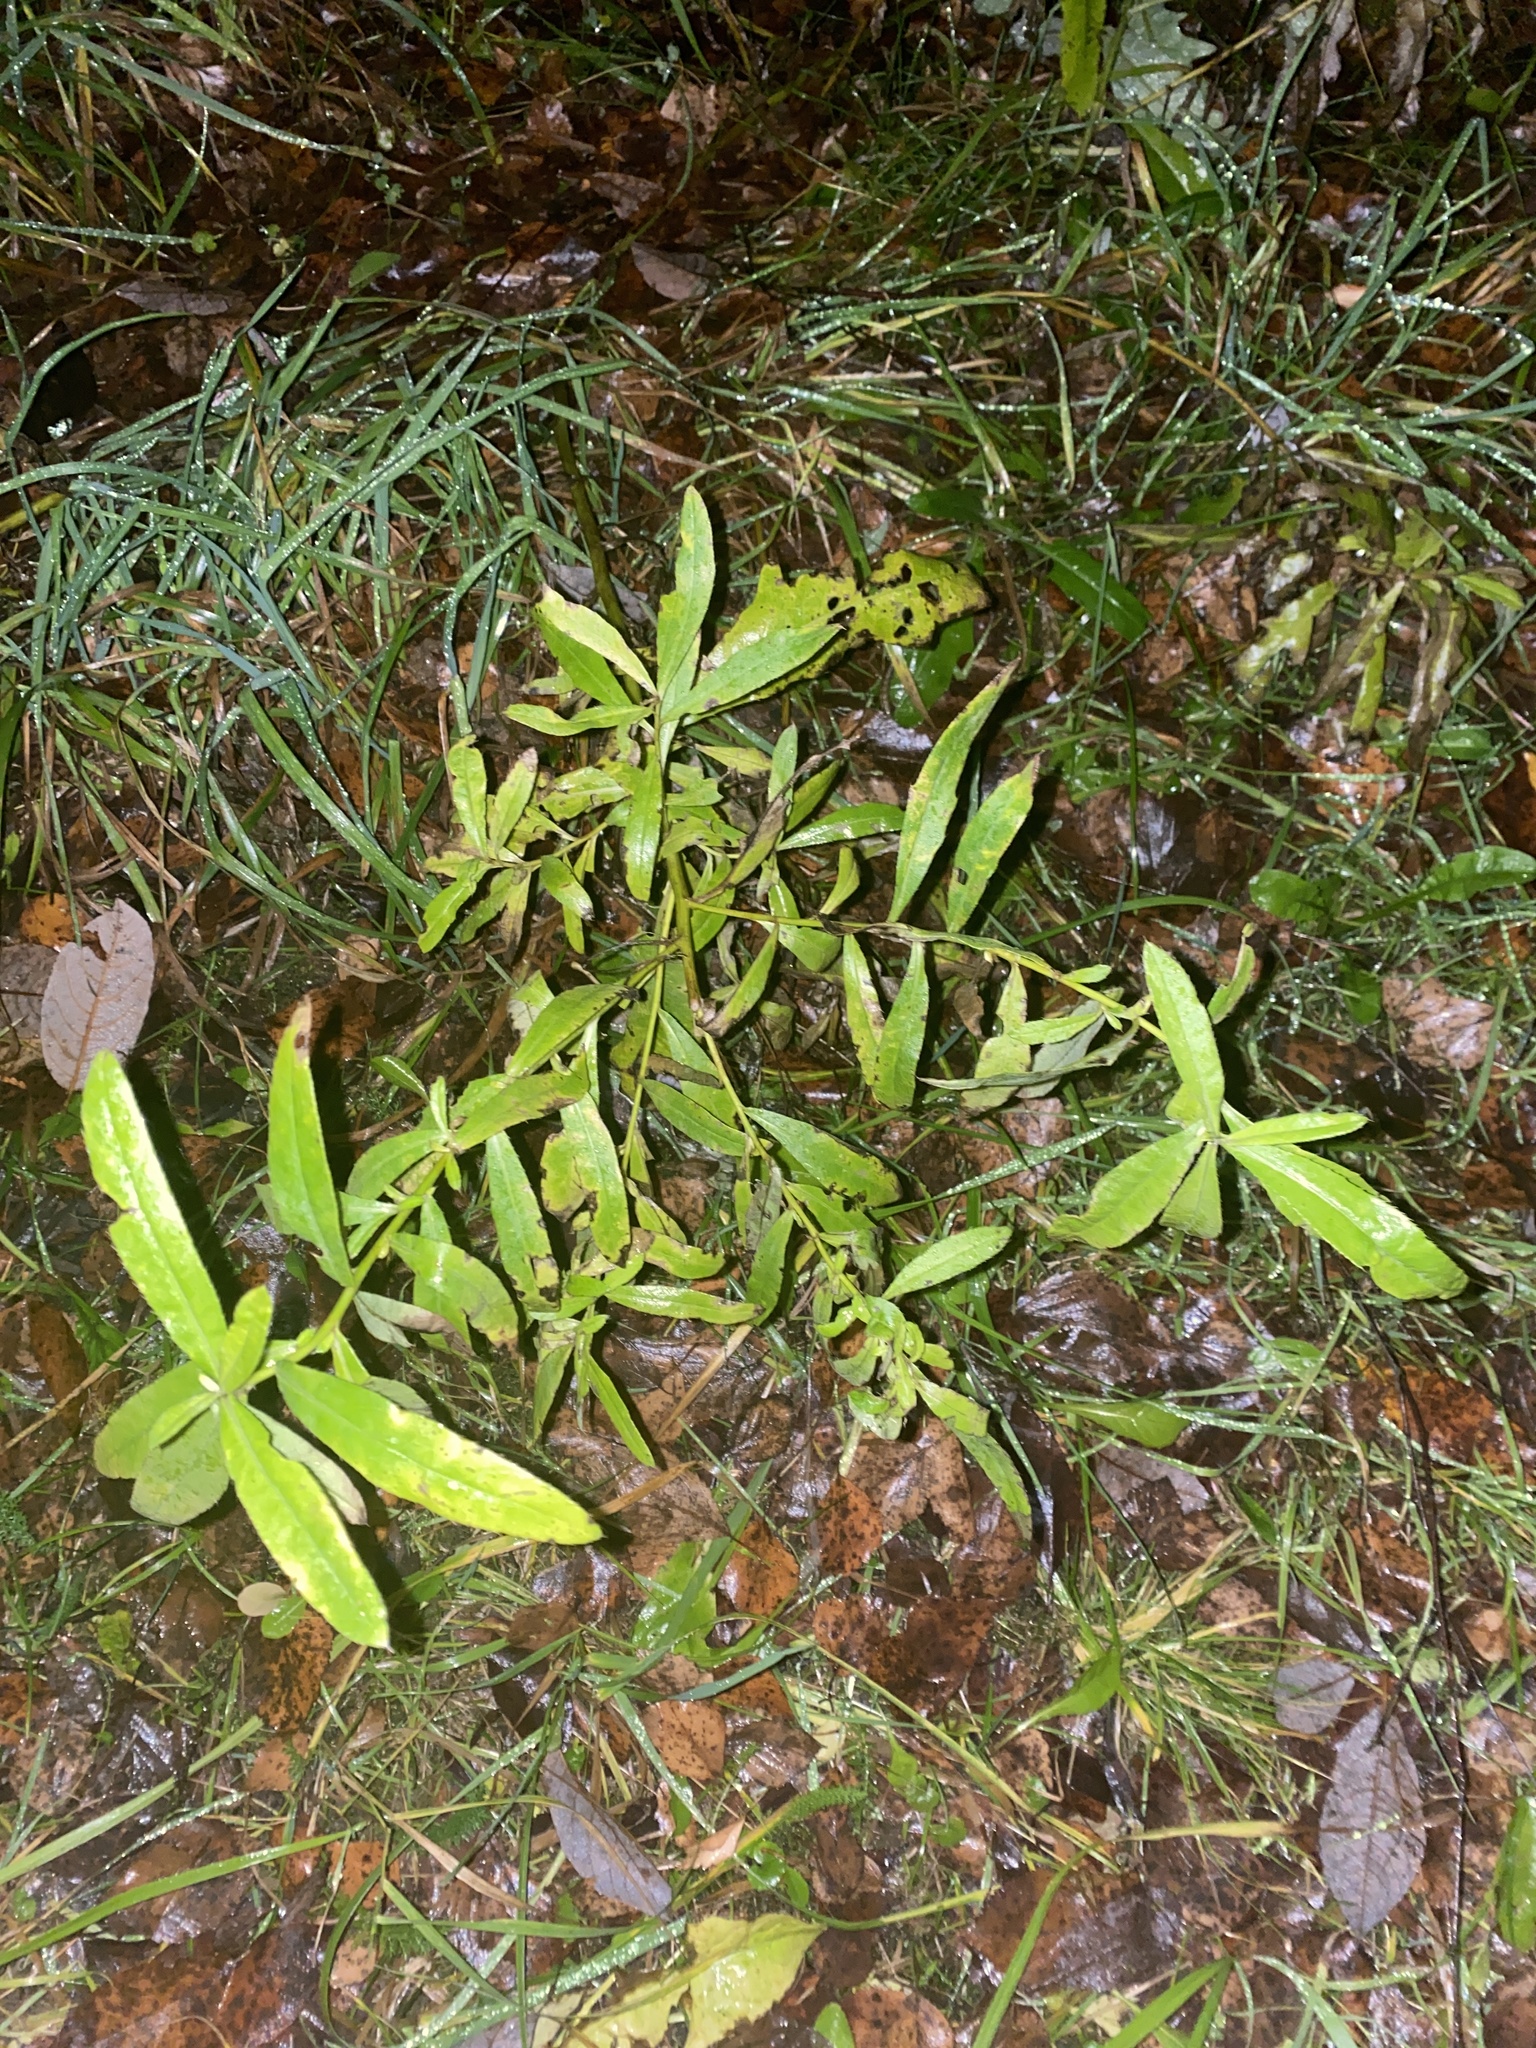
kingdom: Plantae
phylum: Tracheophyta
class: Magnoliopsida
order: Asterales
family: Asteraceae
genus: Cirsium
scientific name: Cirsium arvense
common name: Creeping thistle
